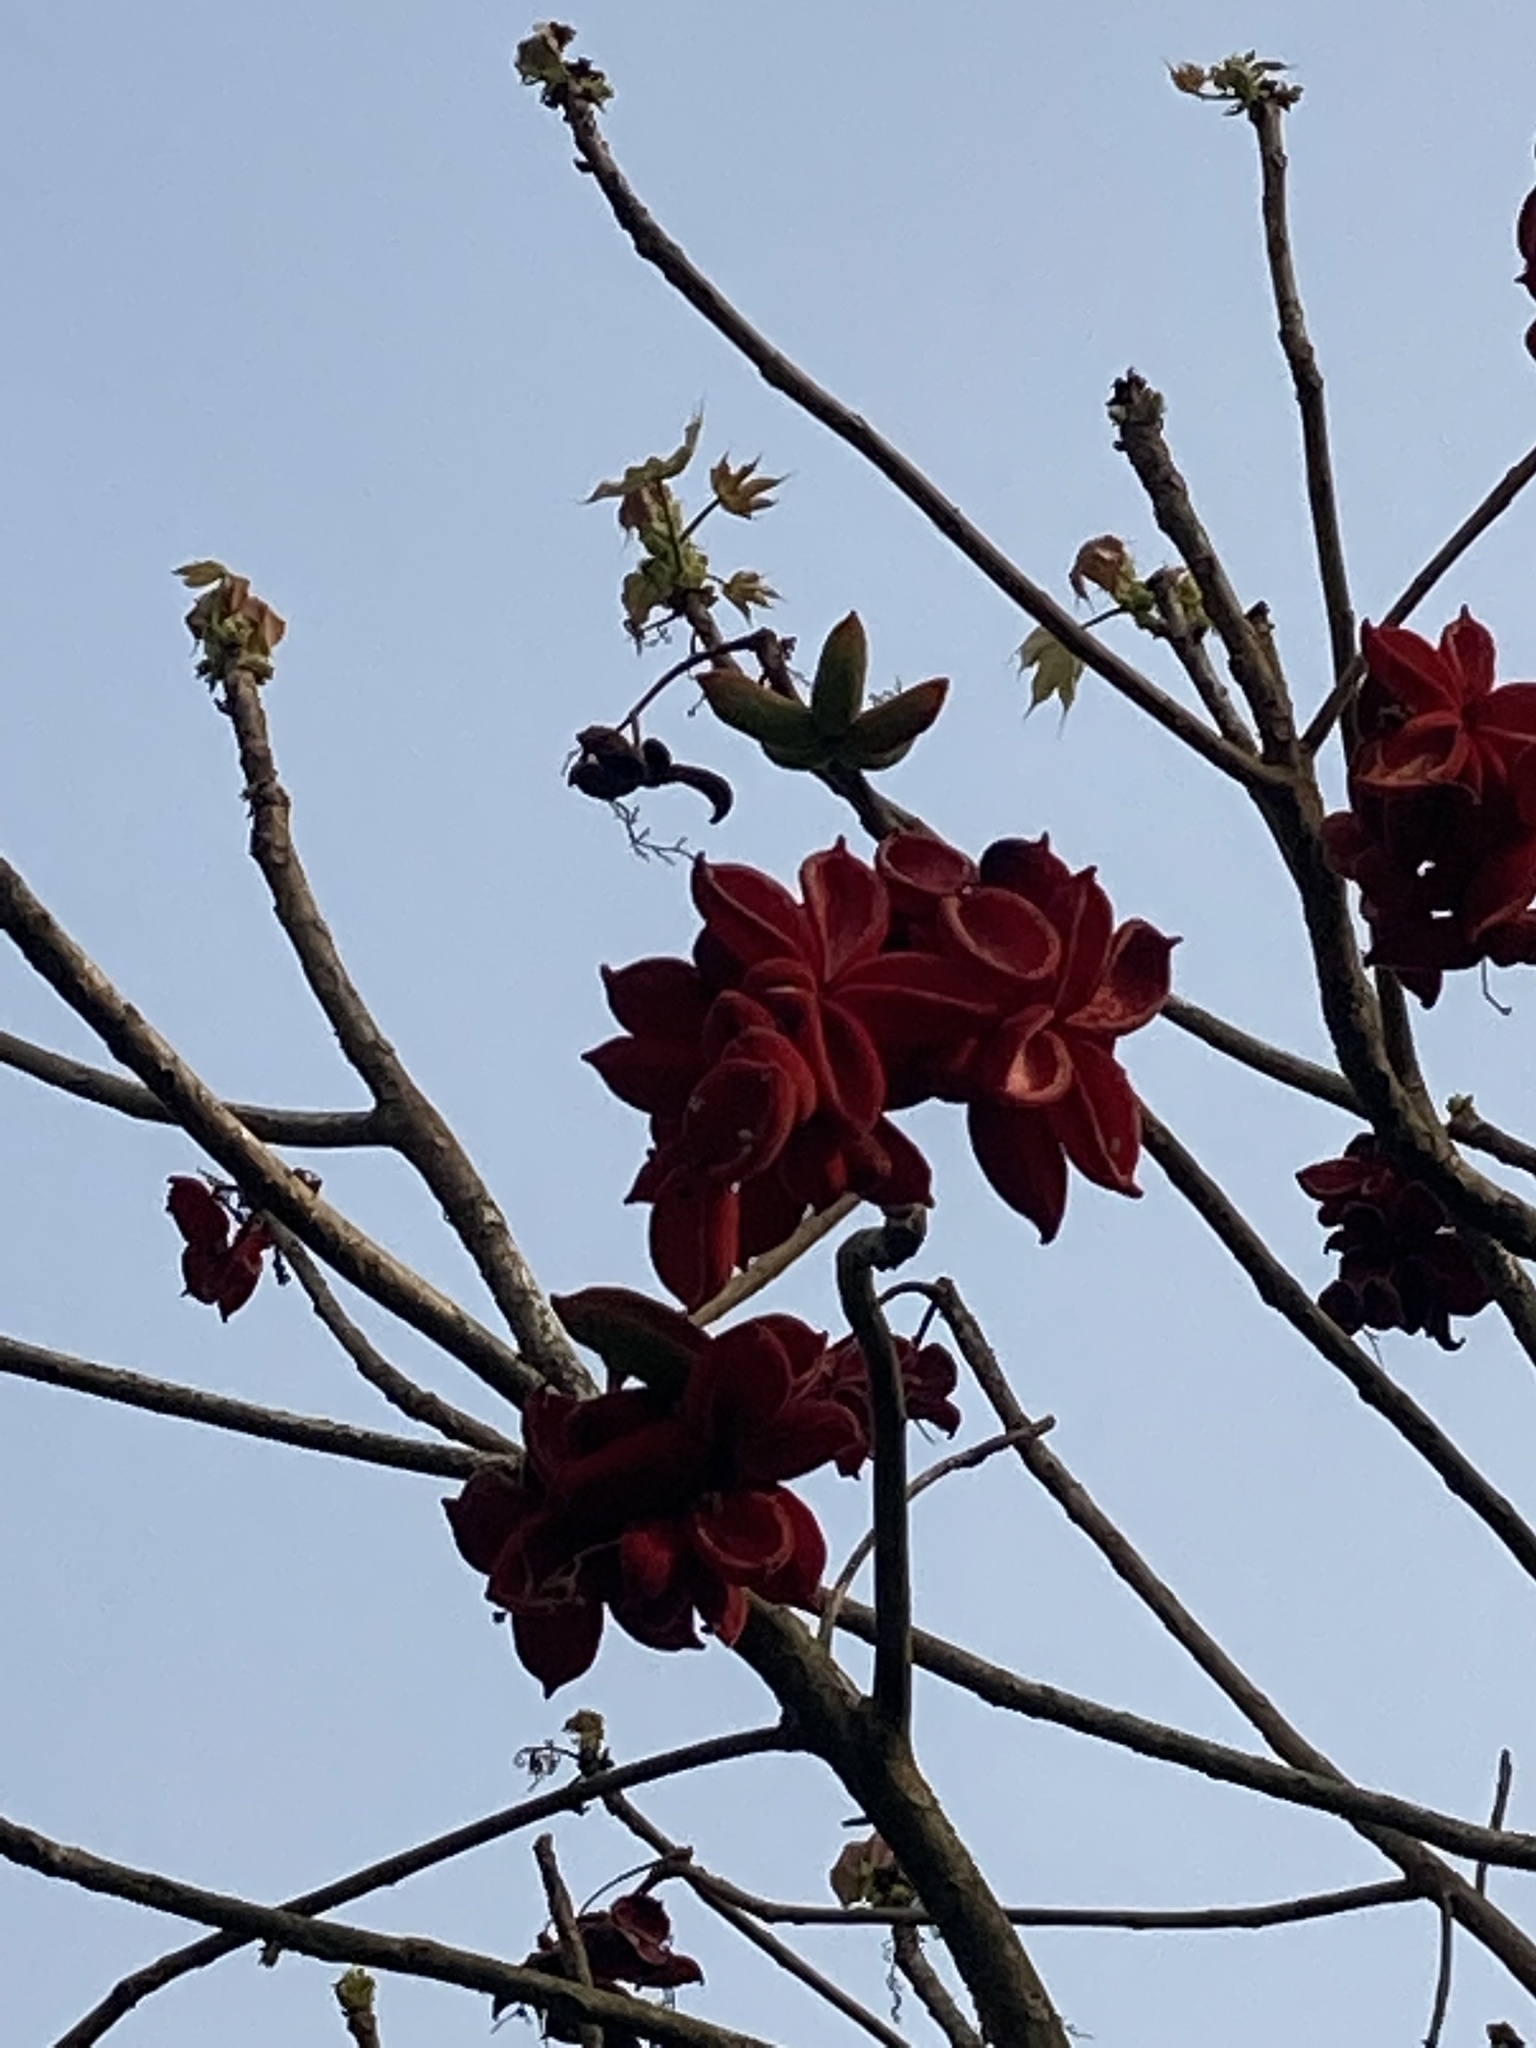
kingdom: Plantae
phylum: Tracheophyta
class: Magnoliopsida
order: Malvales
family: Malvaceae
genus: Sterculia
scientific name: Sterculia villosa
